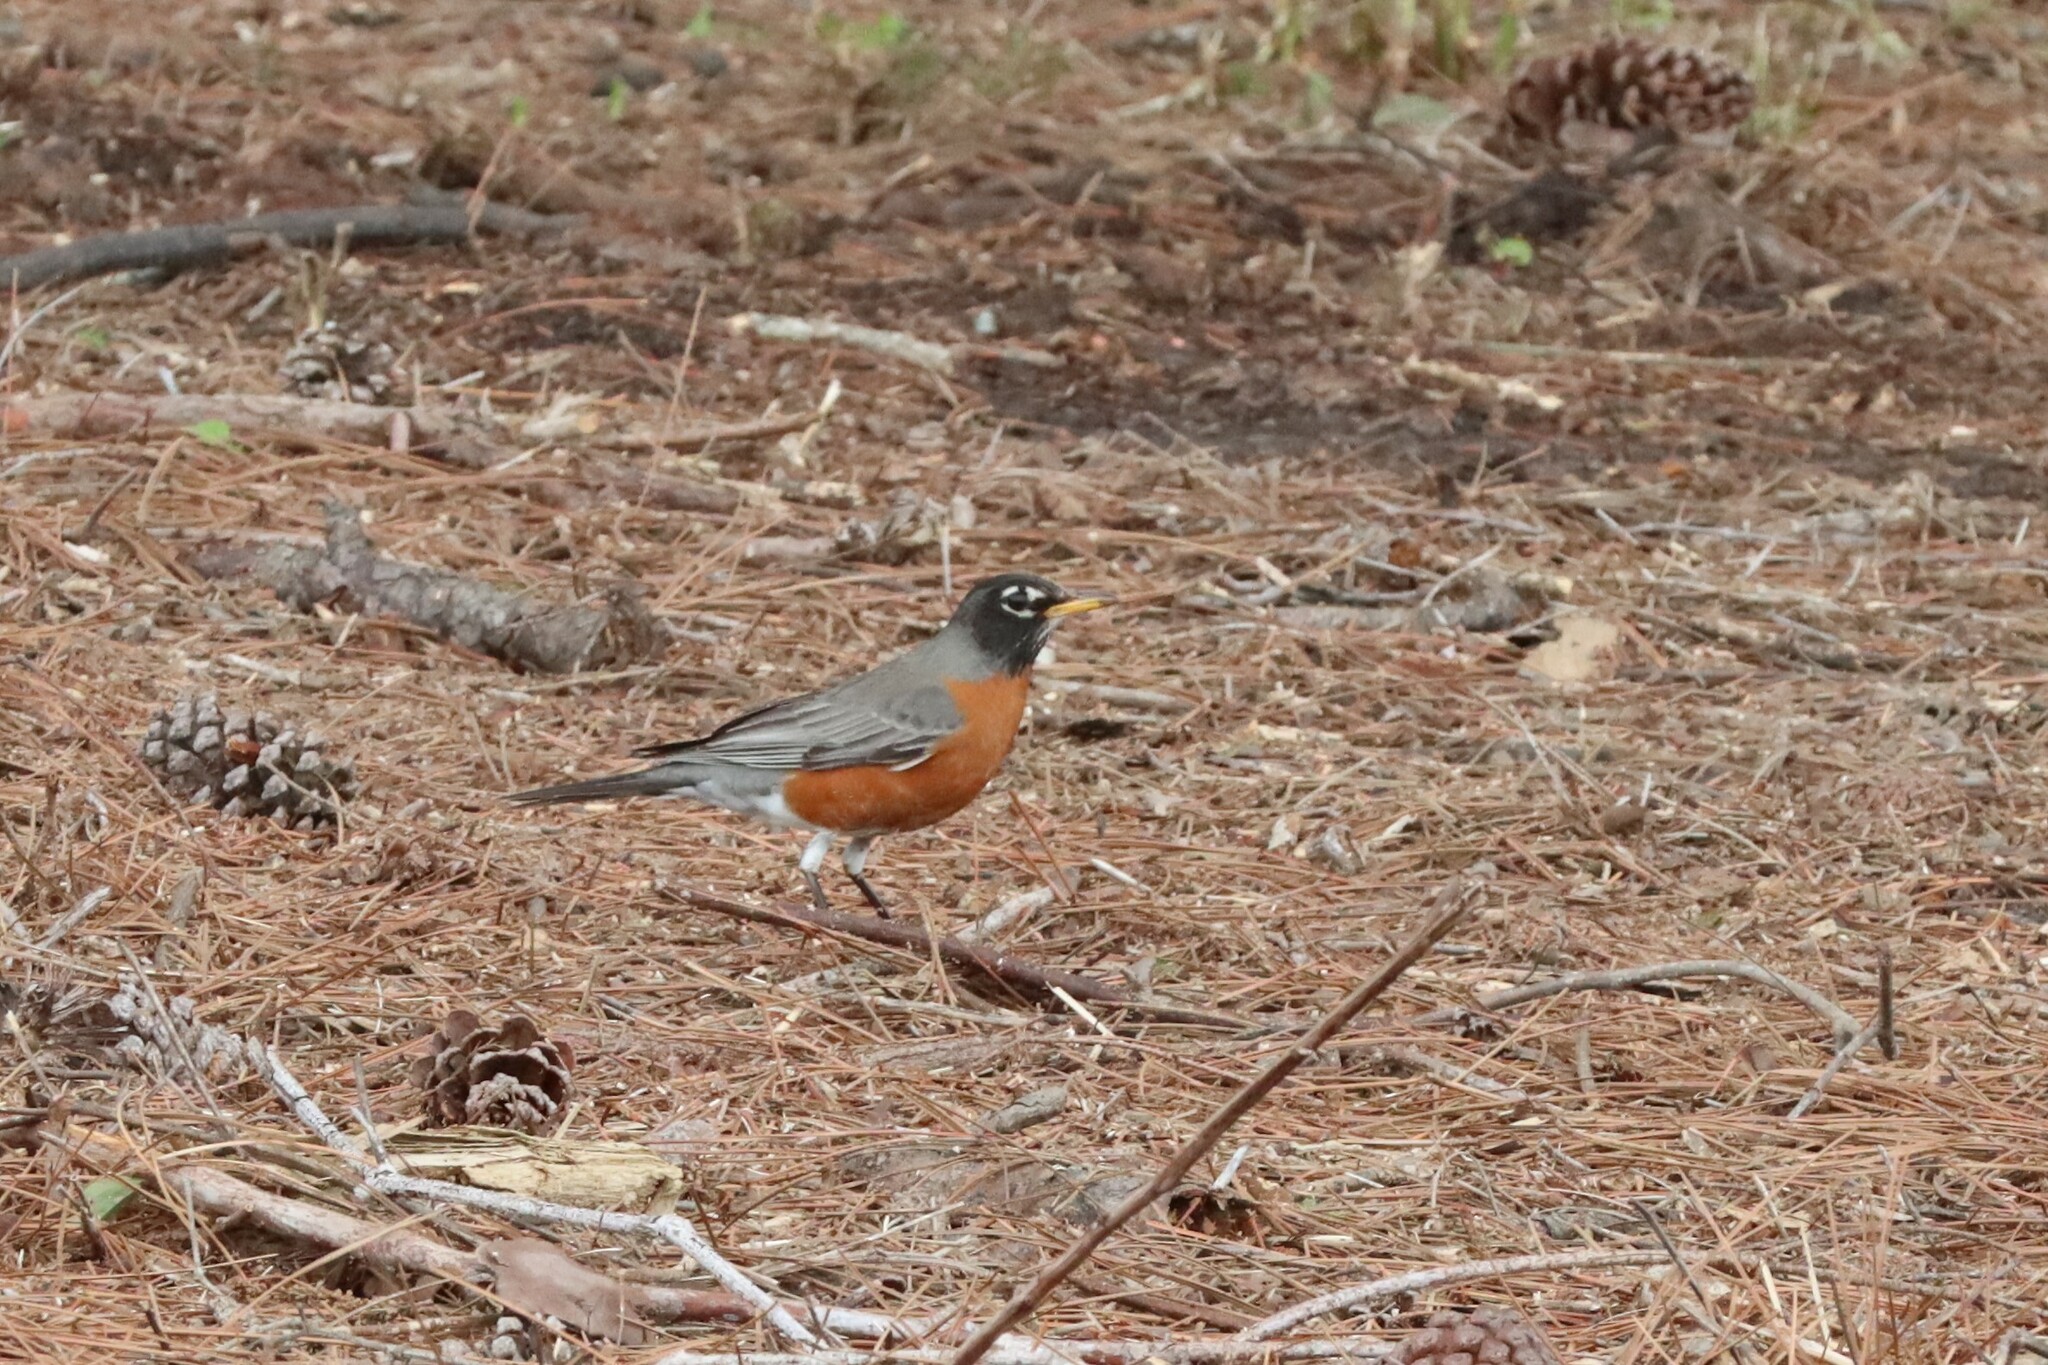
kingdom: Animalia
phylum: Chordata
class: Aves
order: Passeriformes
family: Turdidae
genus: Turdus
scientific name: Turdus migratorius
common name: American robin
